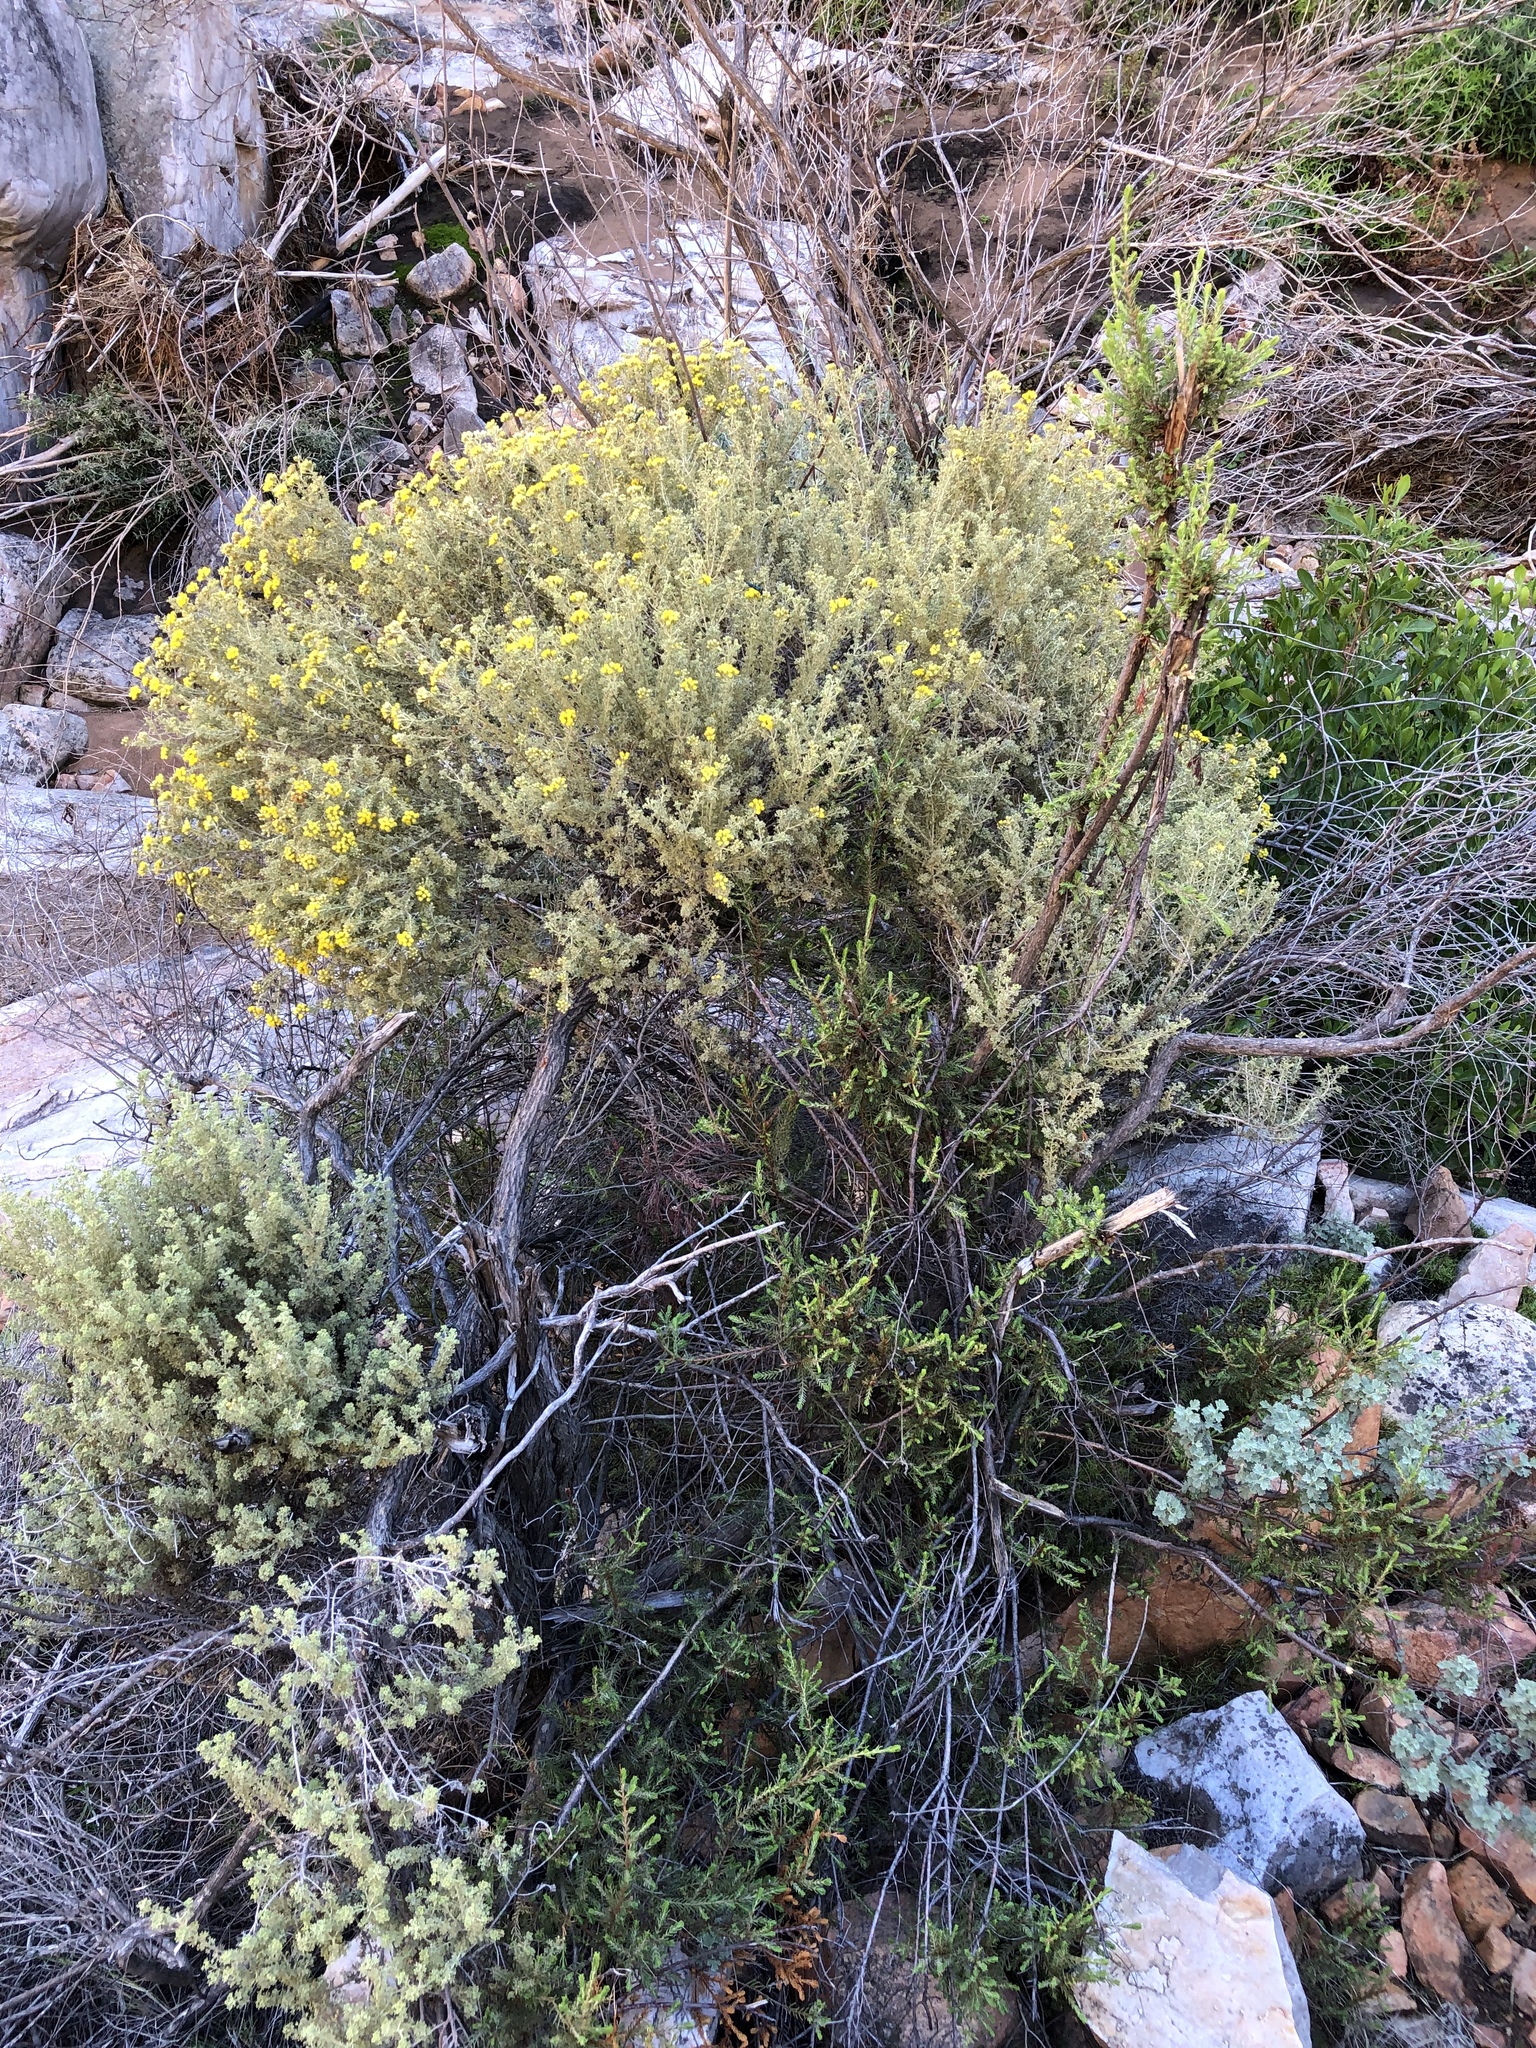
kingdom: Plantae
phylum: Tracheophyta
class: Magnoliopsida
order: Asterales
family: Asteraceae
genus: Pentzia
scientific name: Pentzia elegans
